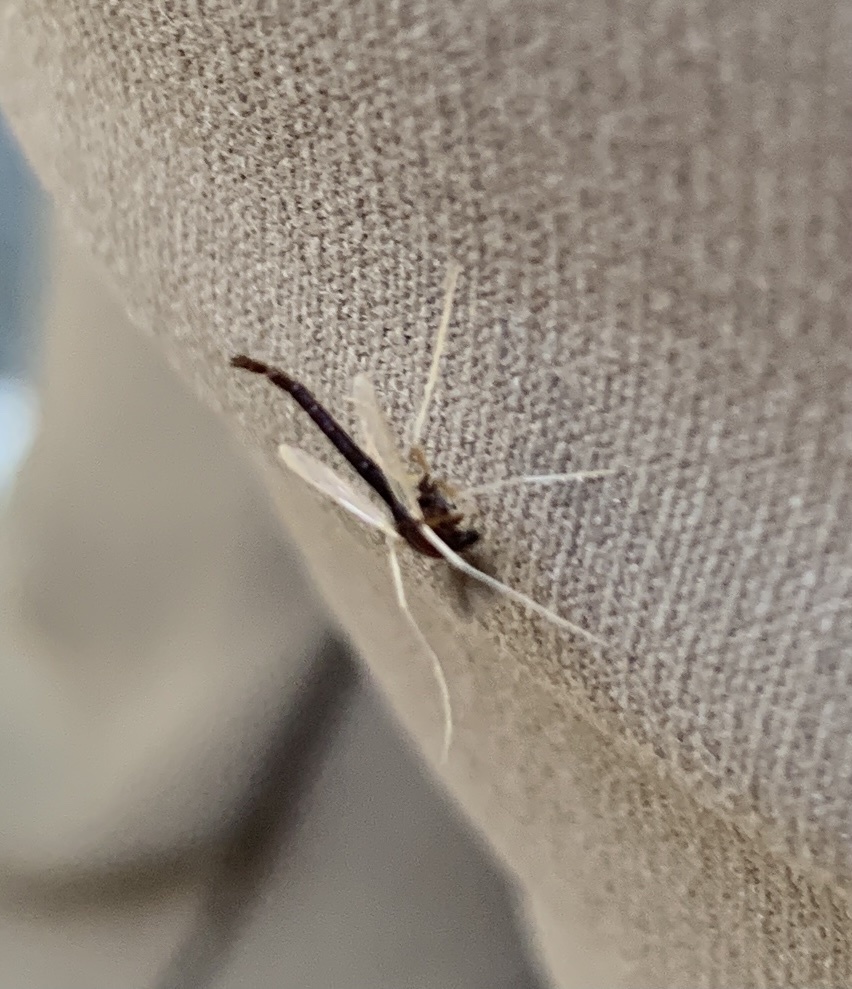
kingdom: Animalia
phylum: Arthropoda
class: Insecta
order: Diptera
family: Chironomidae
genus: Hyporhygma
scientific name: Hyporhygma quadripunctatus
